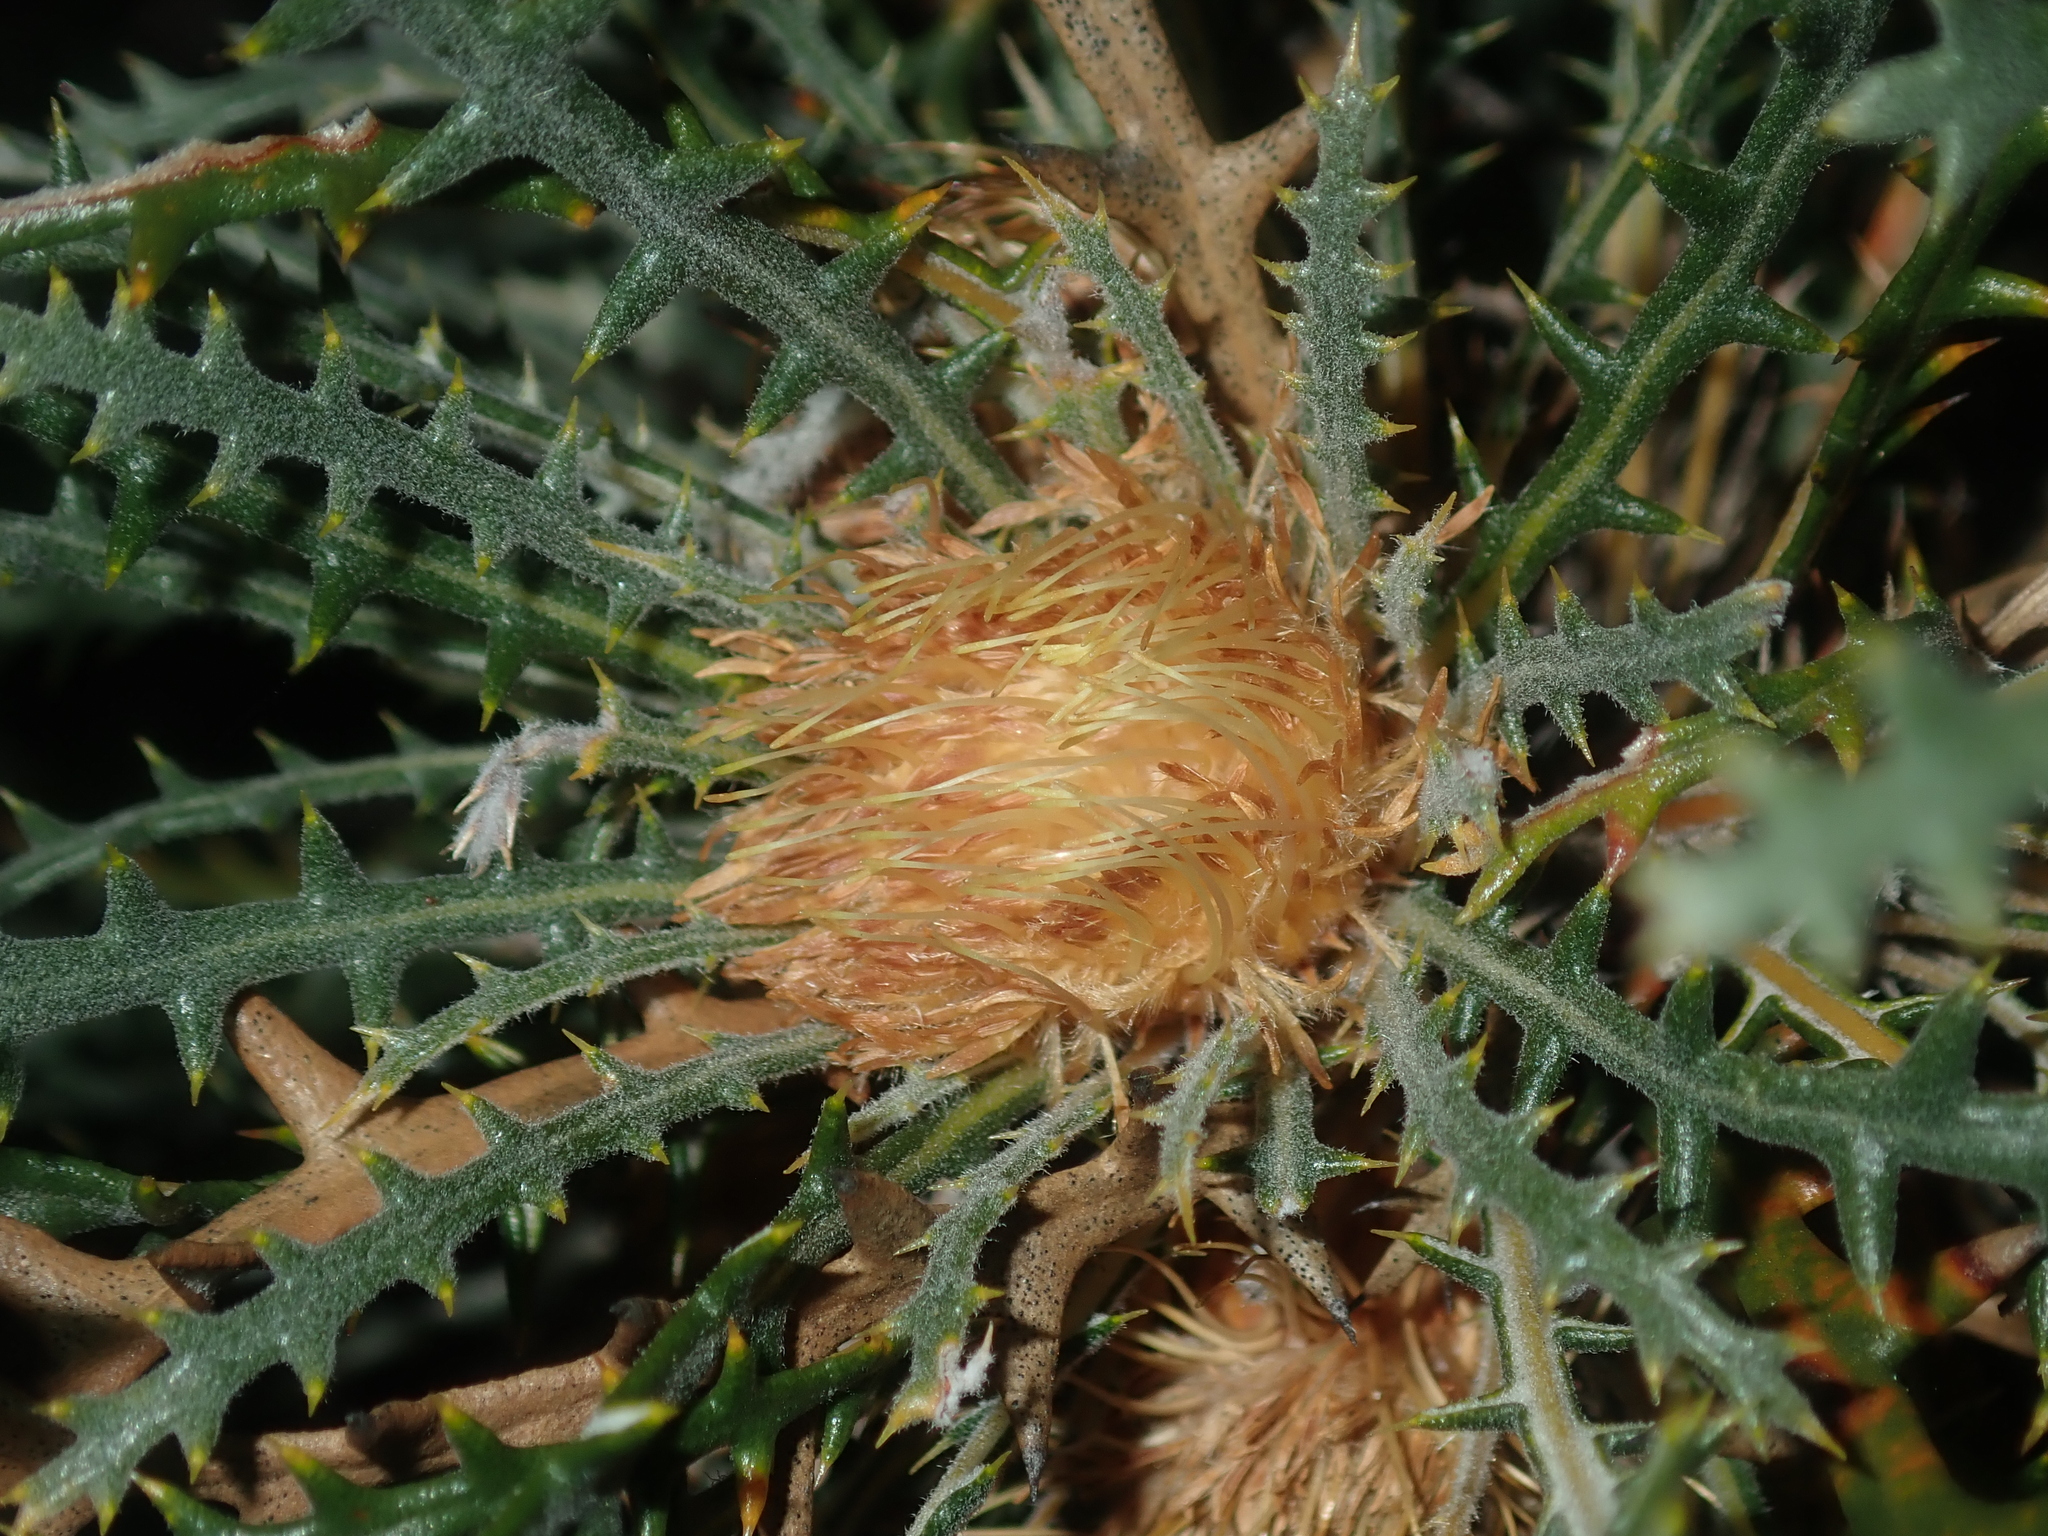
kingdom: Plantae
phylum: Tracheophyta
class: Magnoliopsida
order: Proteales
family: Proteaceae
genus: Banksia
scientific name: Banksia platycarpa
